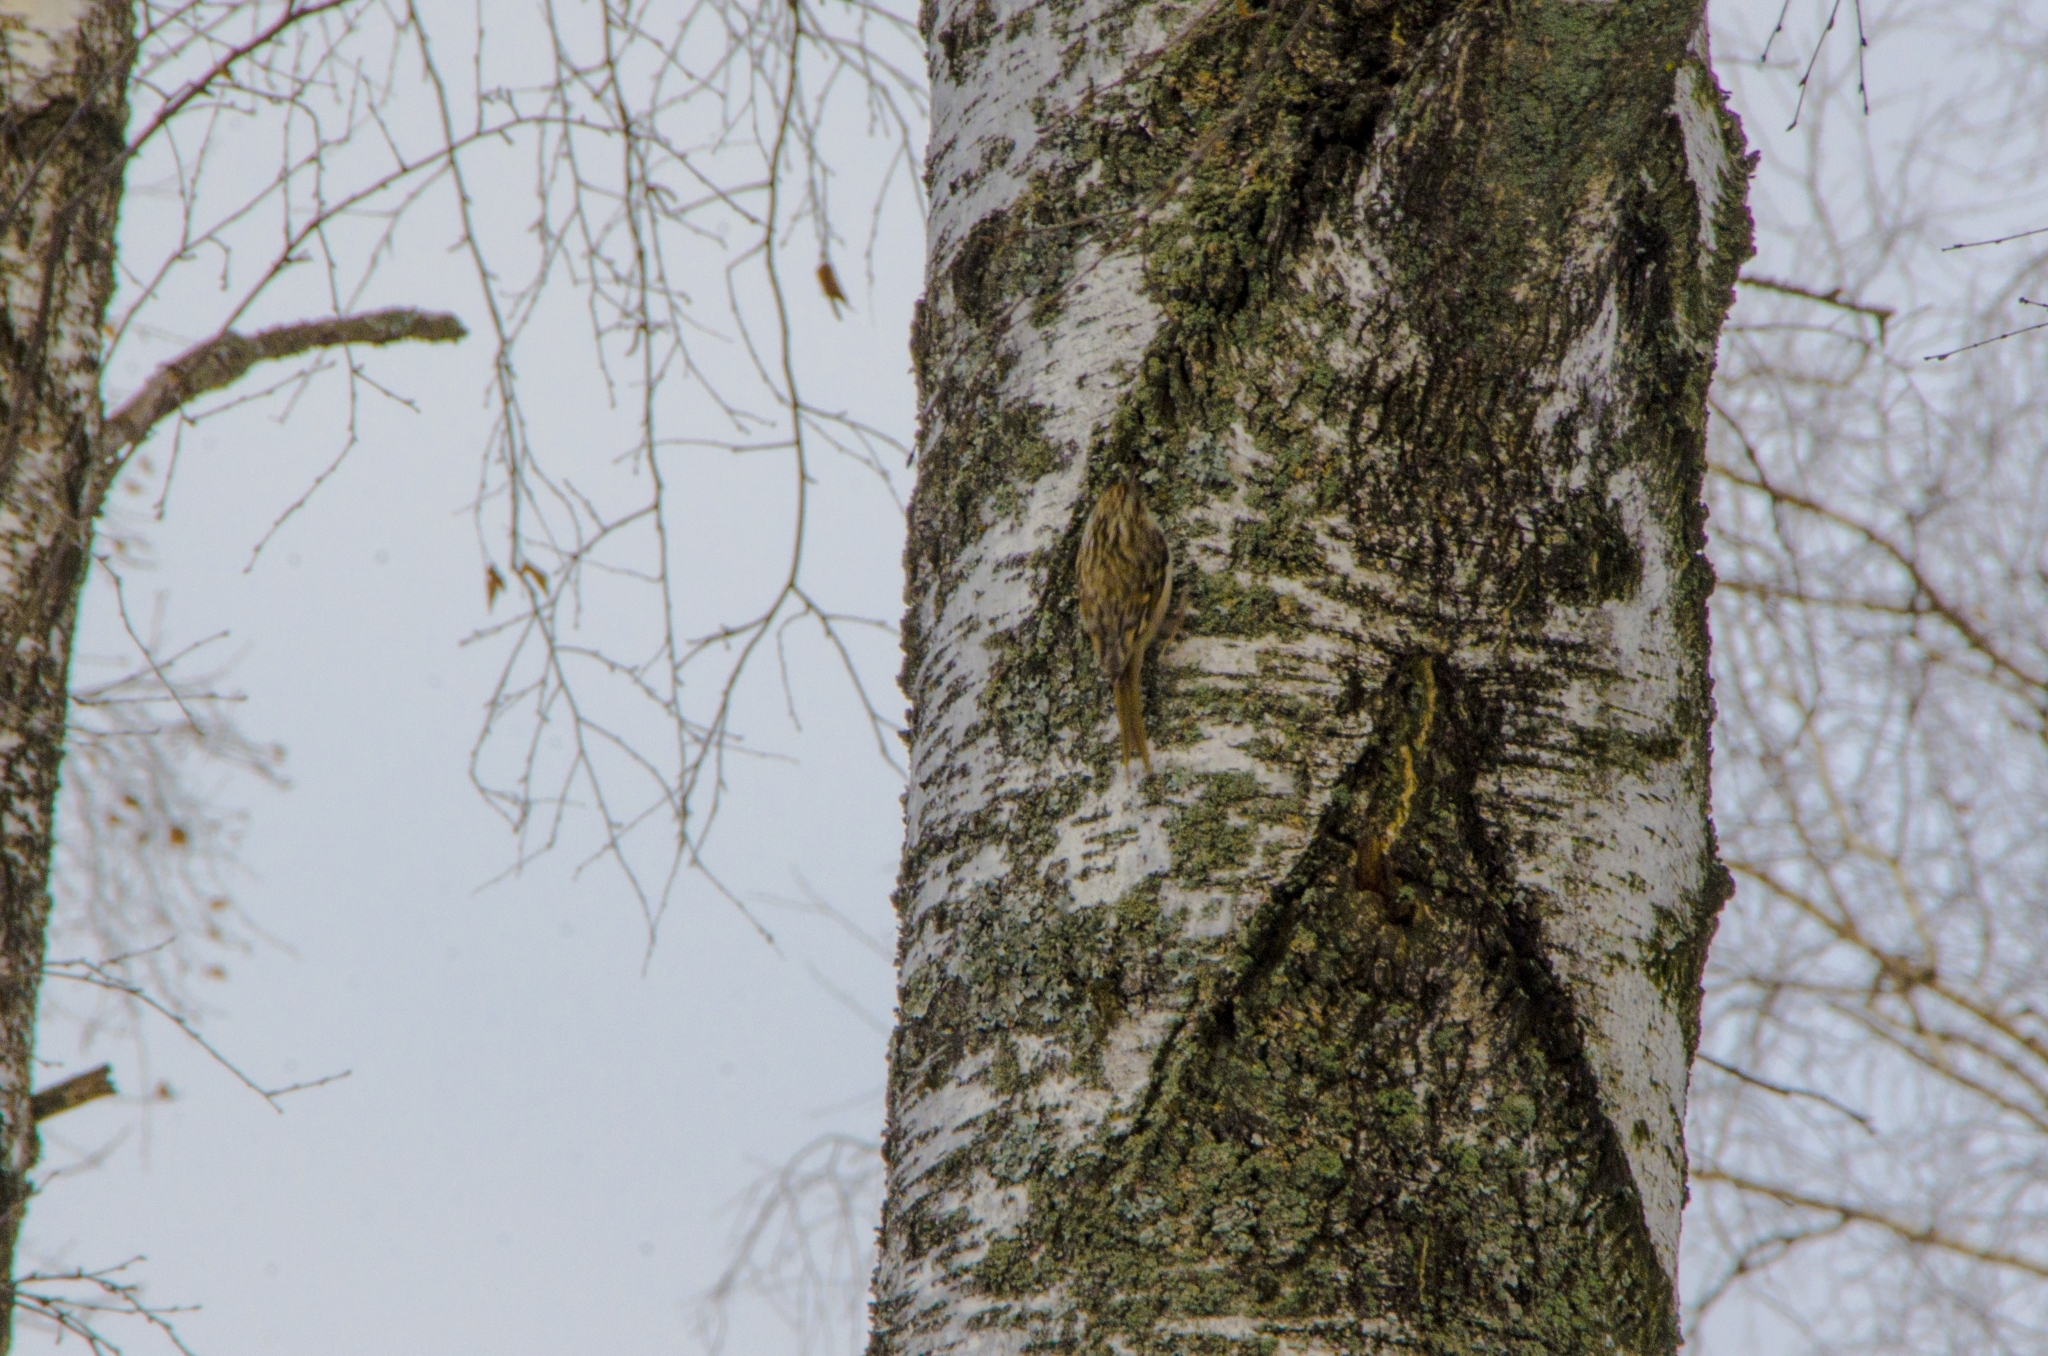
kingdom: Animalia
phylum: Chordata
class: Aves
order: Passeriformes
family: Certhiidae
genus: Certhia
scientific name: Certhia familiaris
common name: Eurasian treecreeper
